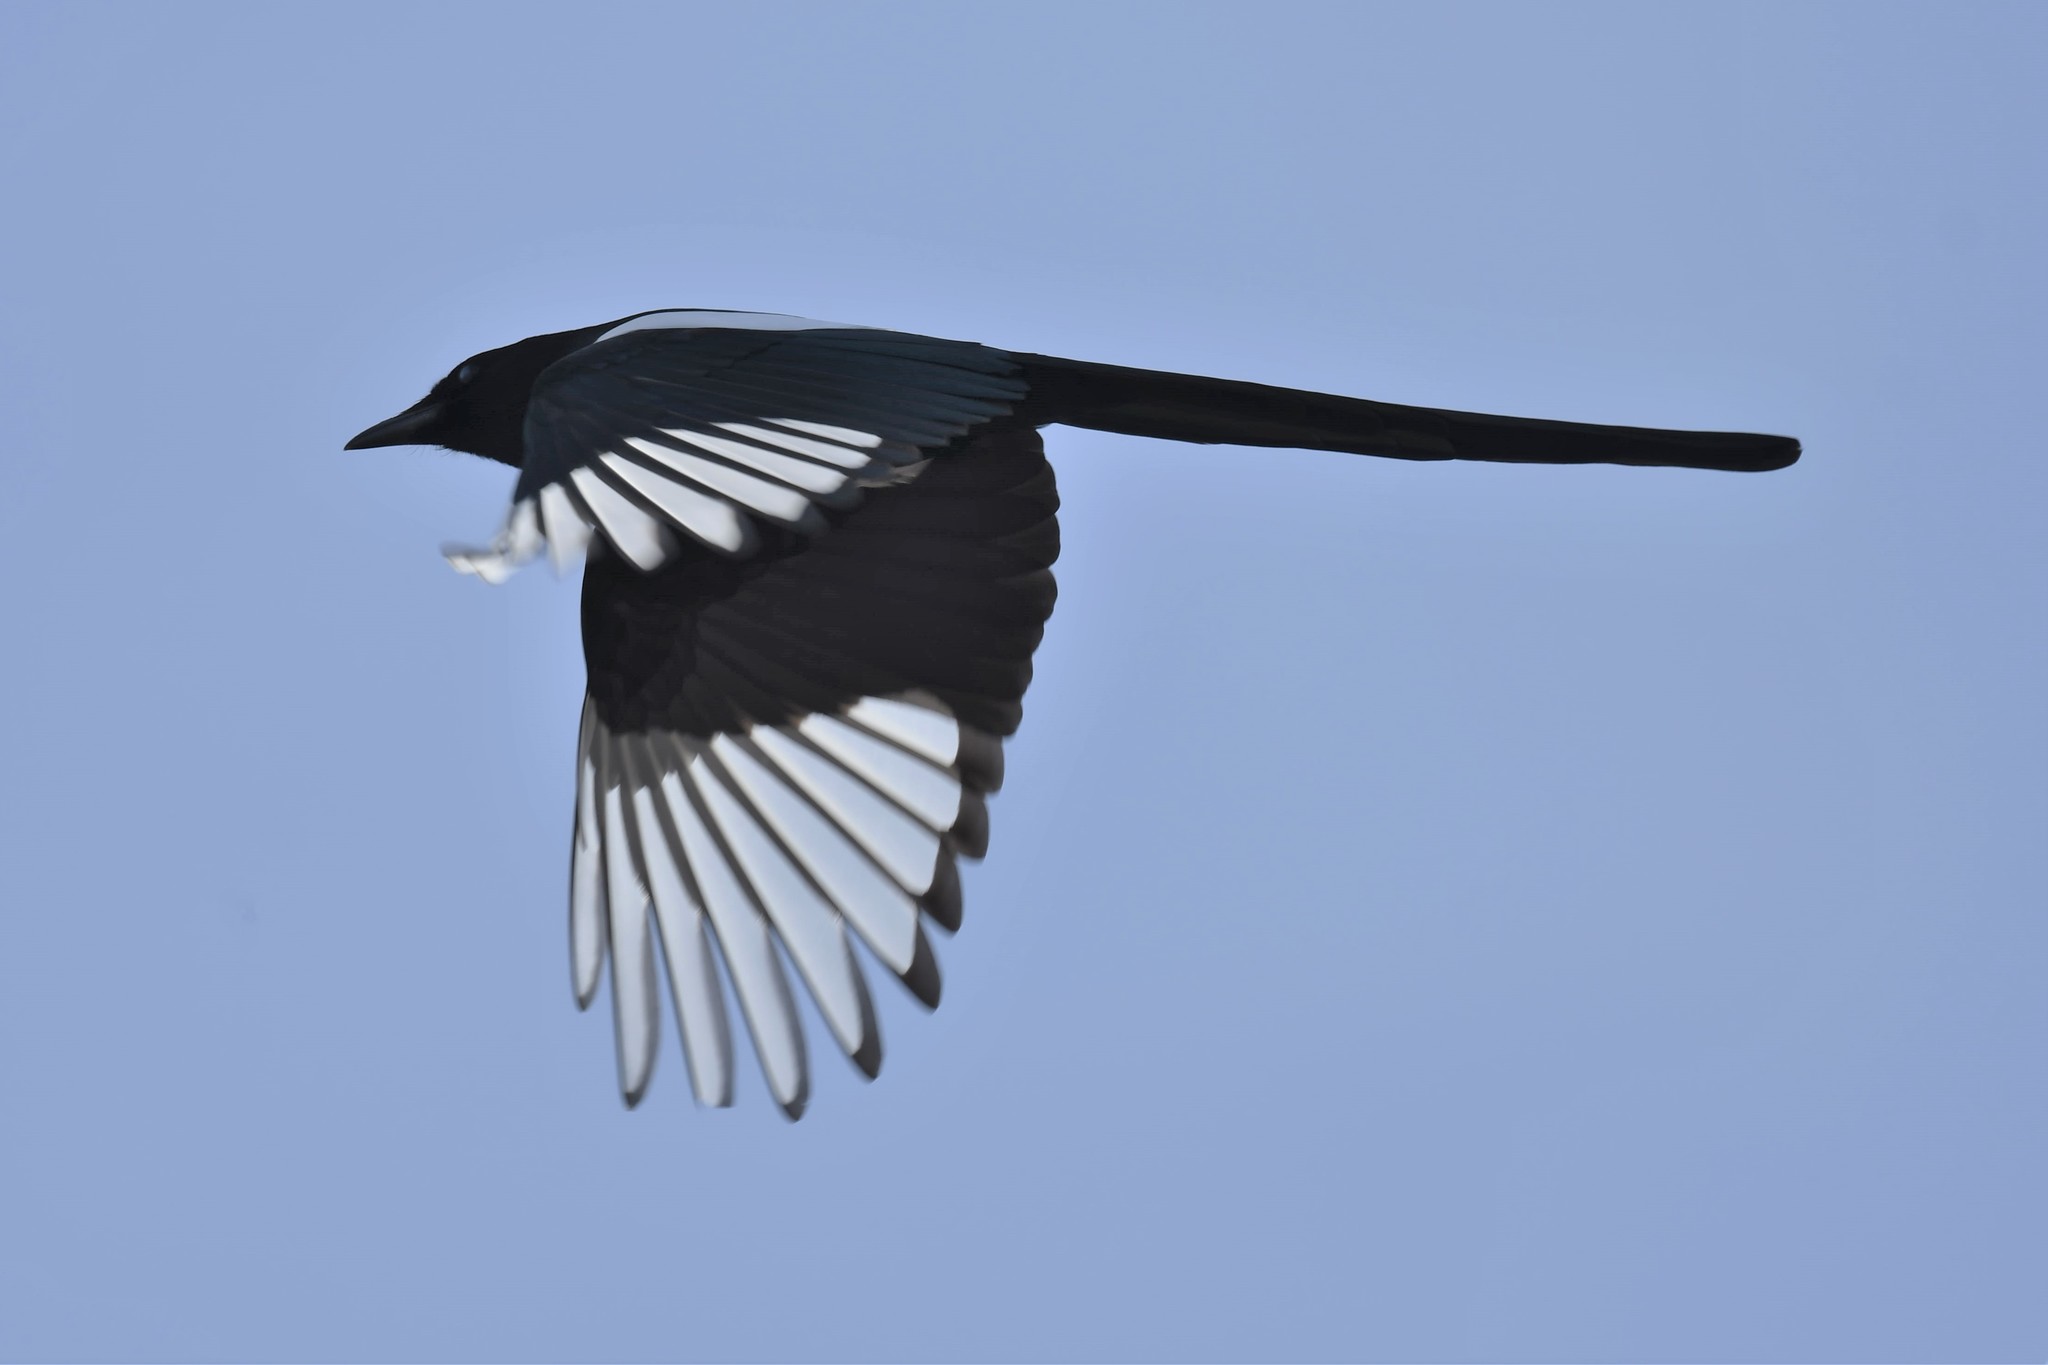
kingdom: Animalia
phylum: Chordata
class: Aves
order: Passeriformes
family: Corvidae
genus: Pica
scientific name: Pica hudsonia
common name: Black-billed magpie
